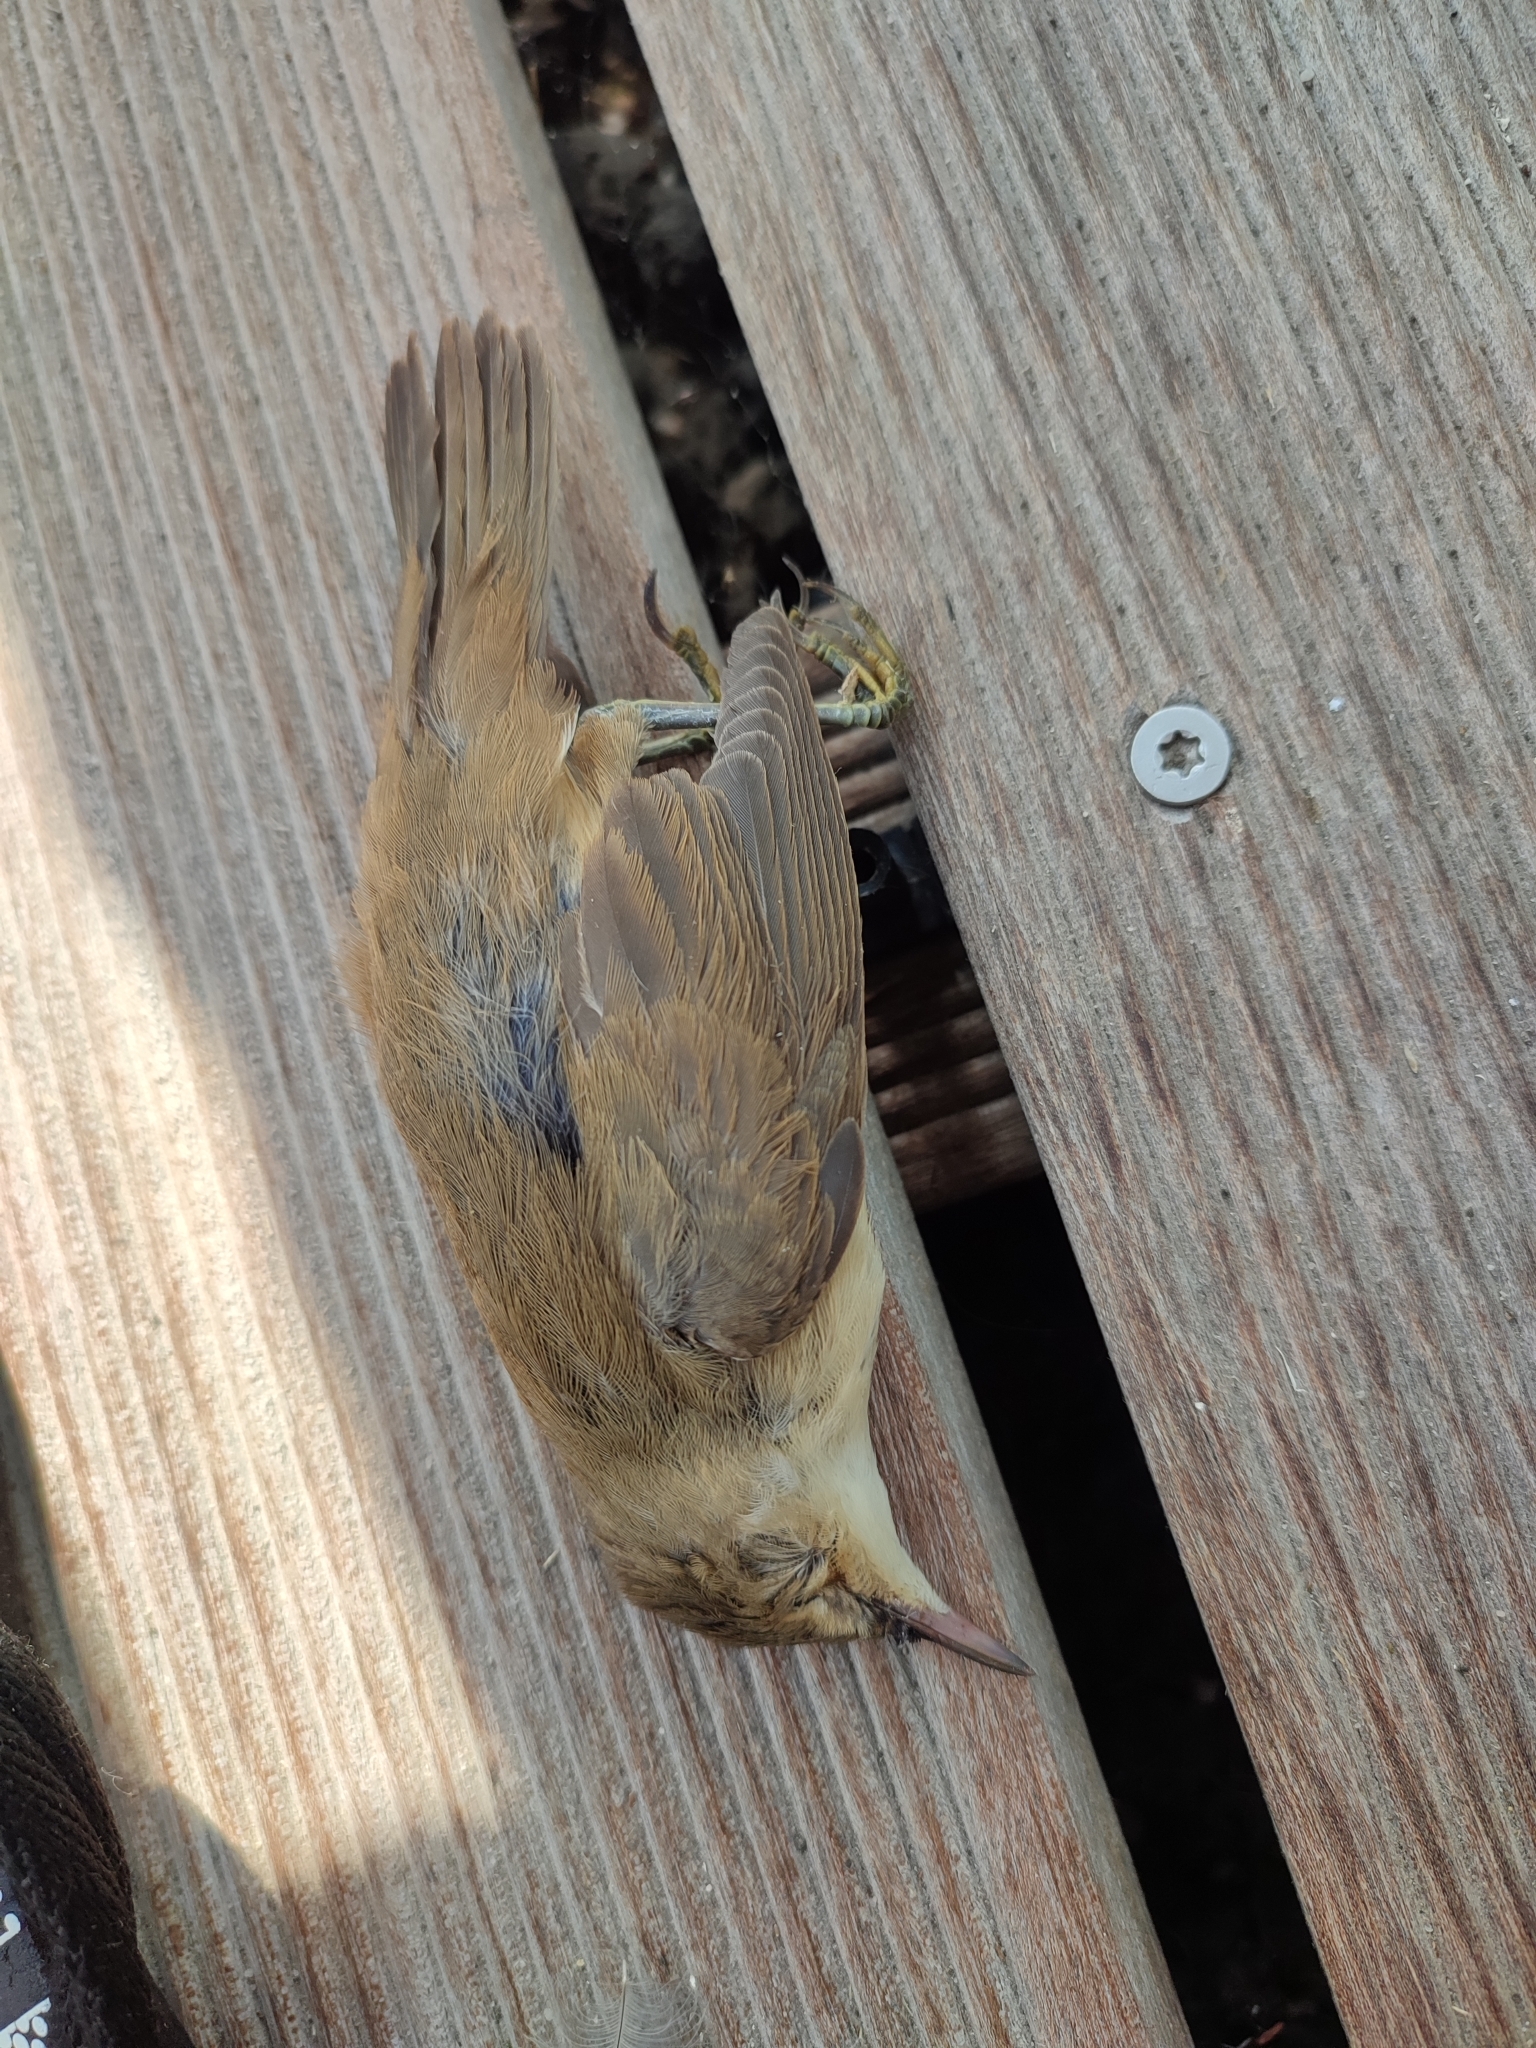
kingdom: Animalia
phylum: Chordata
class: Aves
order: Passeriformes
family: Acrocephalidae
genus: Acrocephalus
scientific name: Acrocephalus scirpaceus
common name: Eurasian reed warbler
